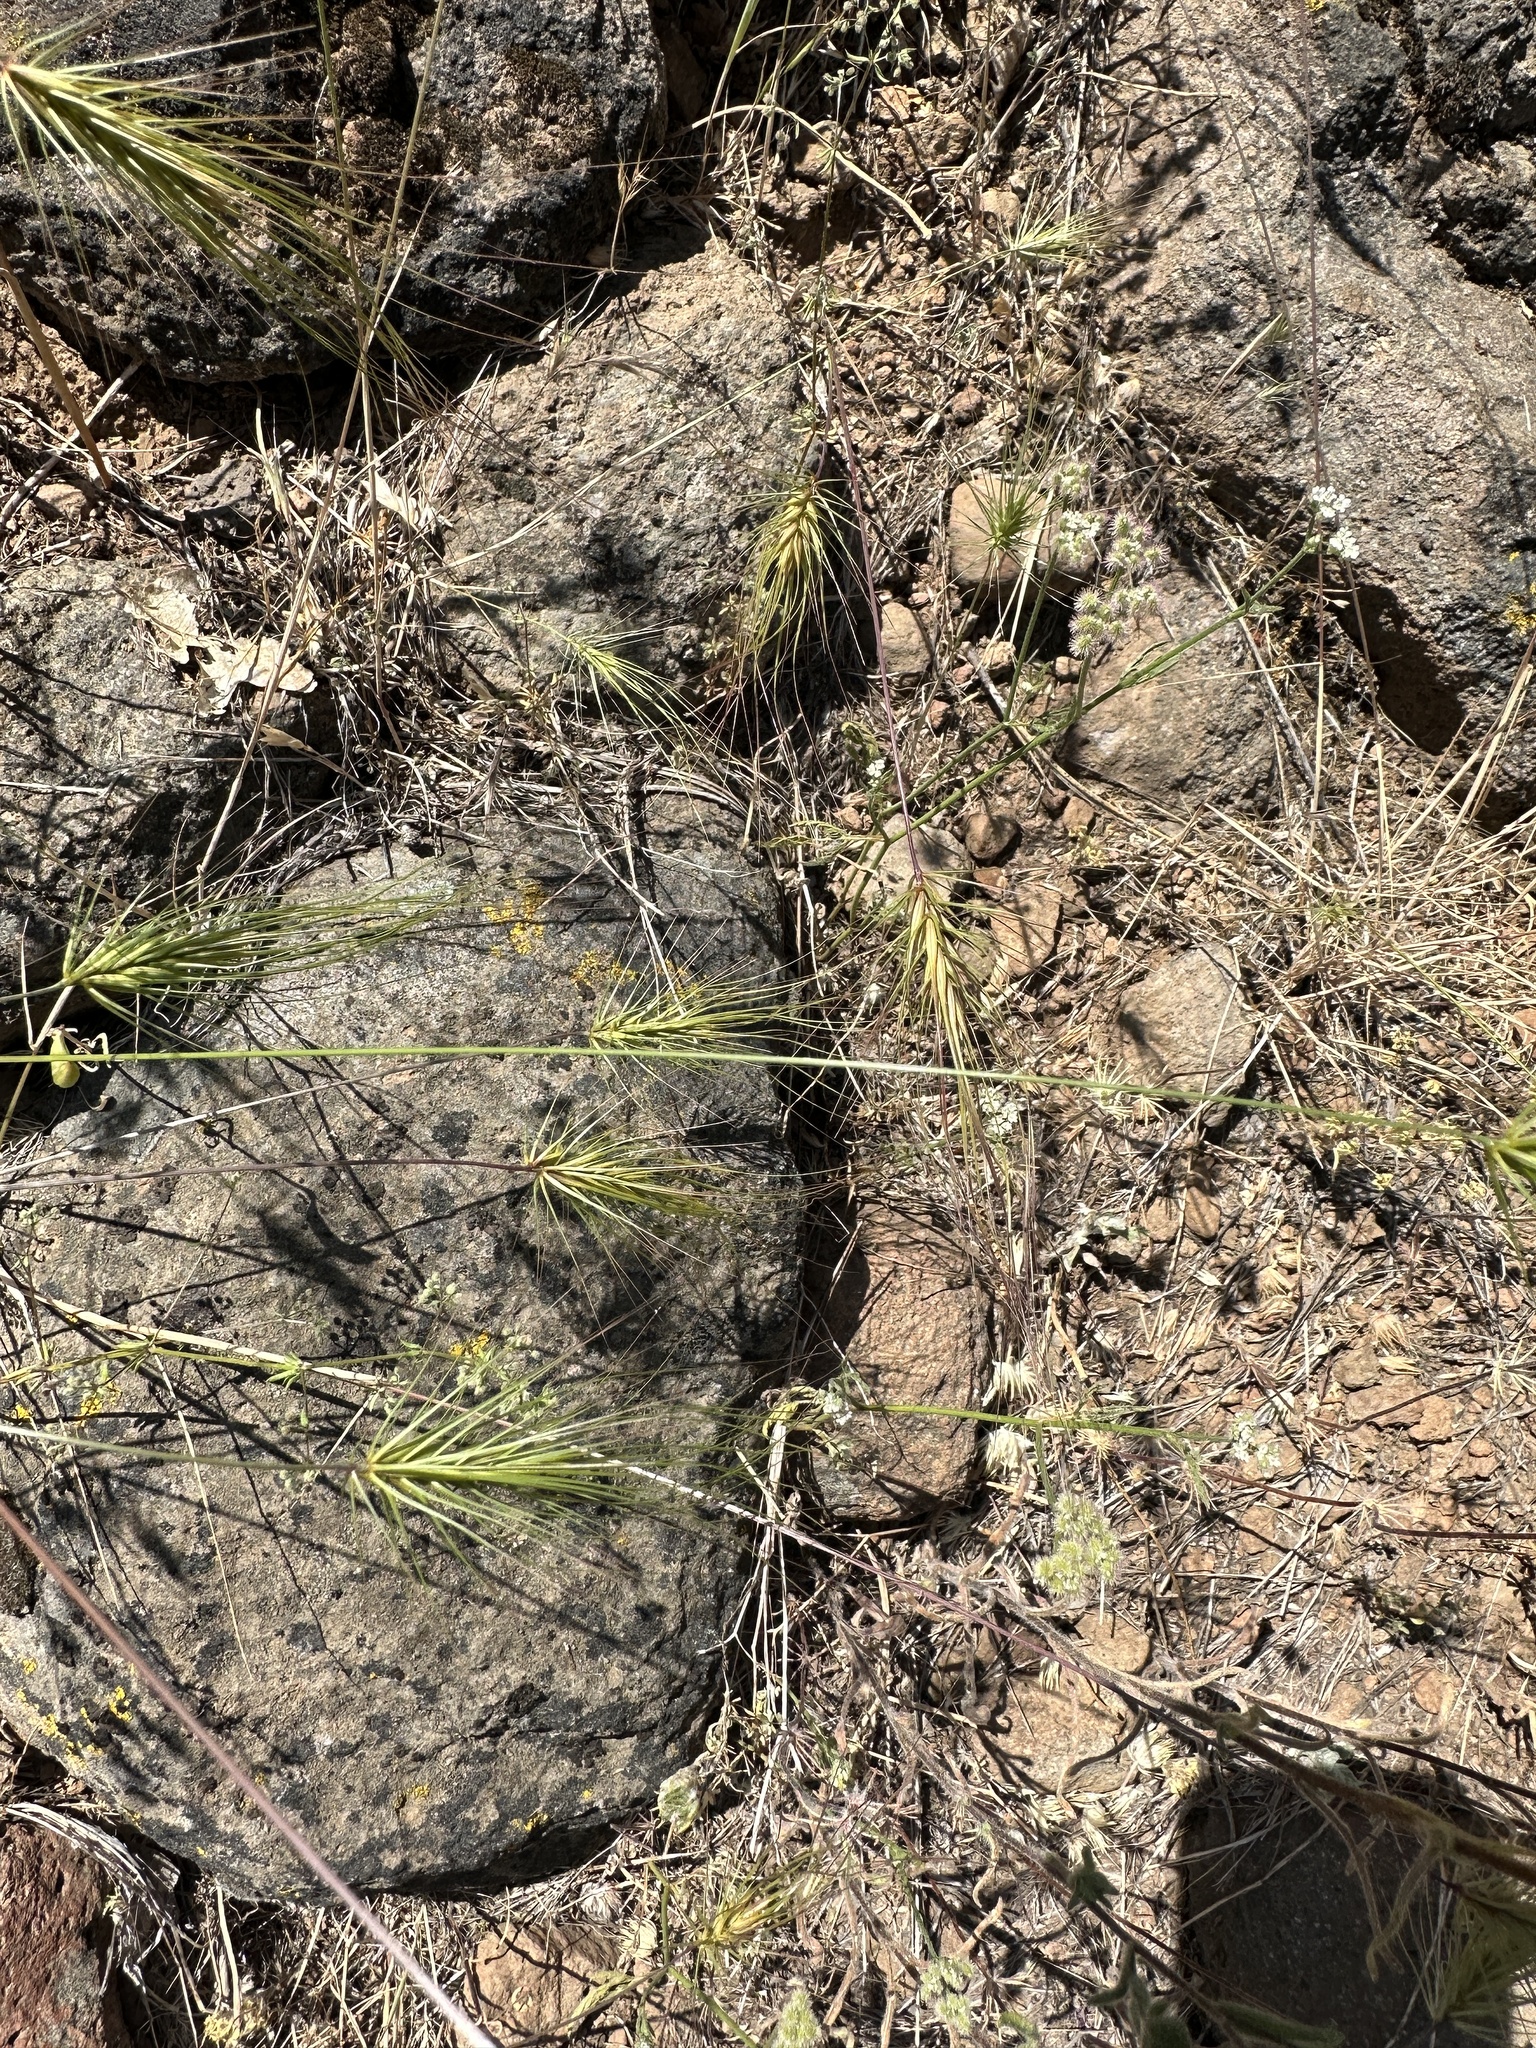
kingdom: Plantae
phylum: Tracheophyta
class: Liliopsida
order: Poales
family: Poaceae
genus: Taeniatherum
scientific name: Taeniatherum caput-medusae
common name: Medusahead
